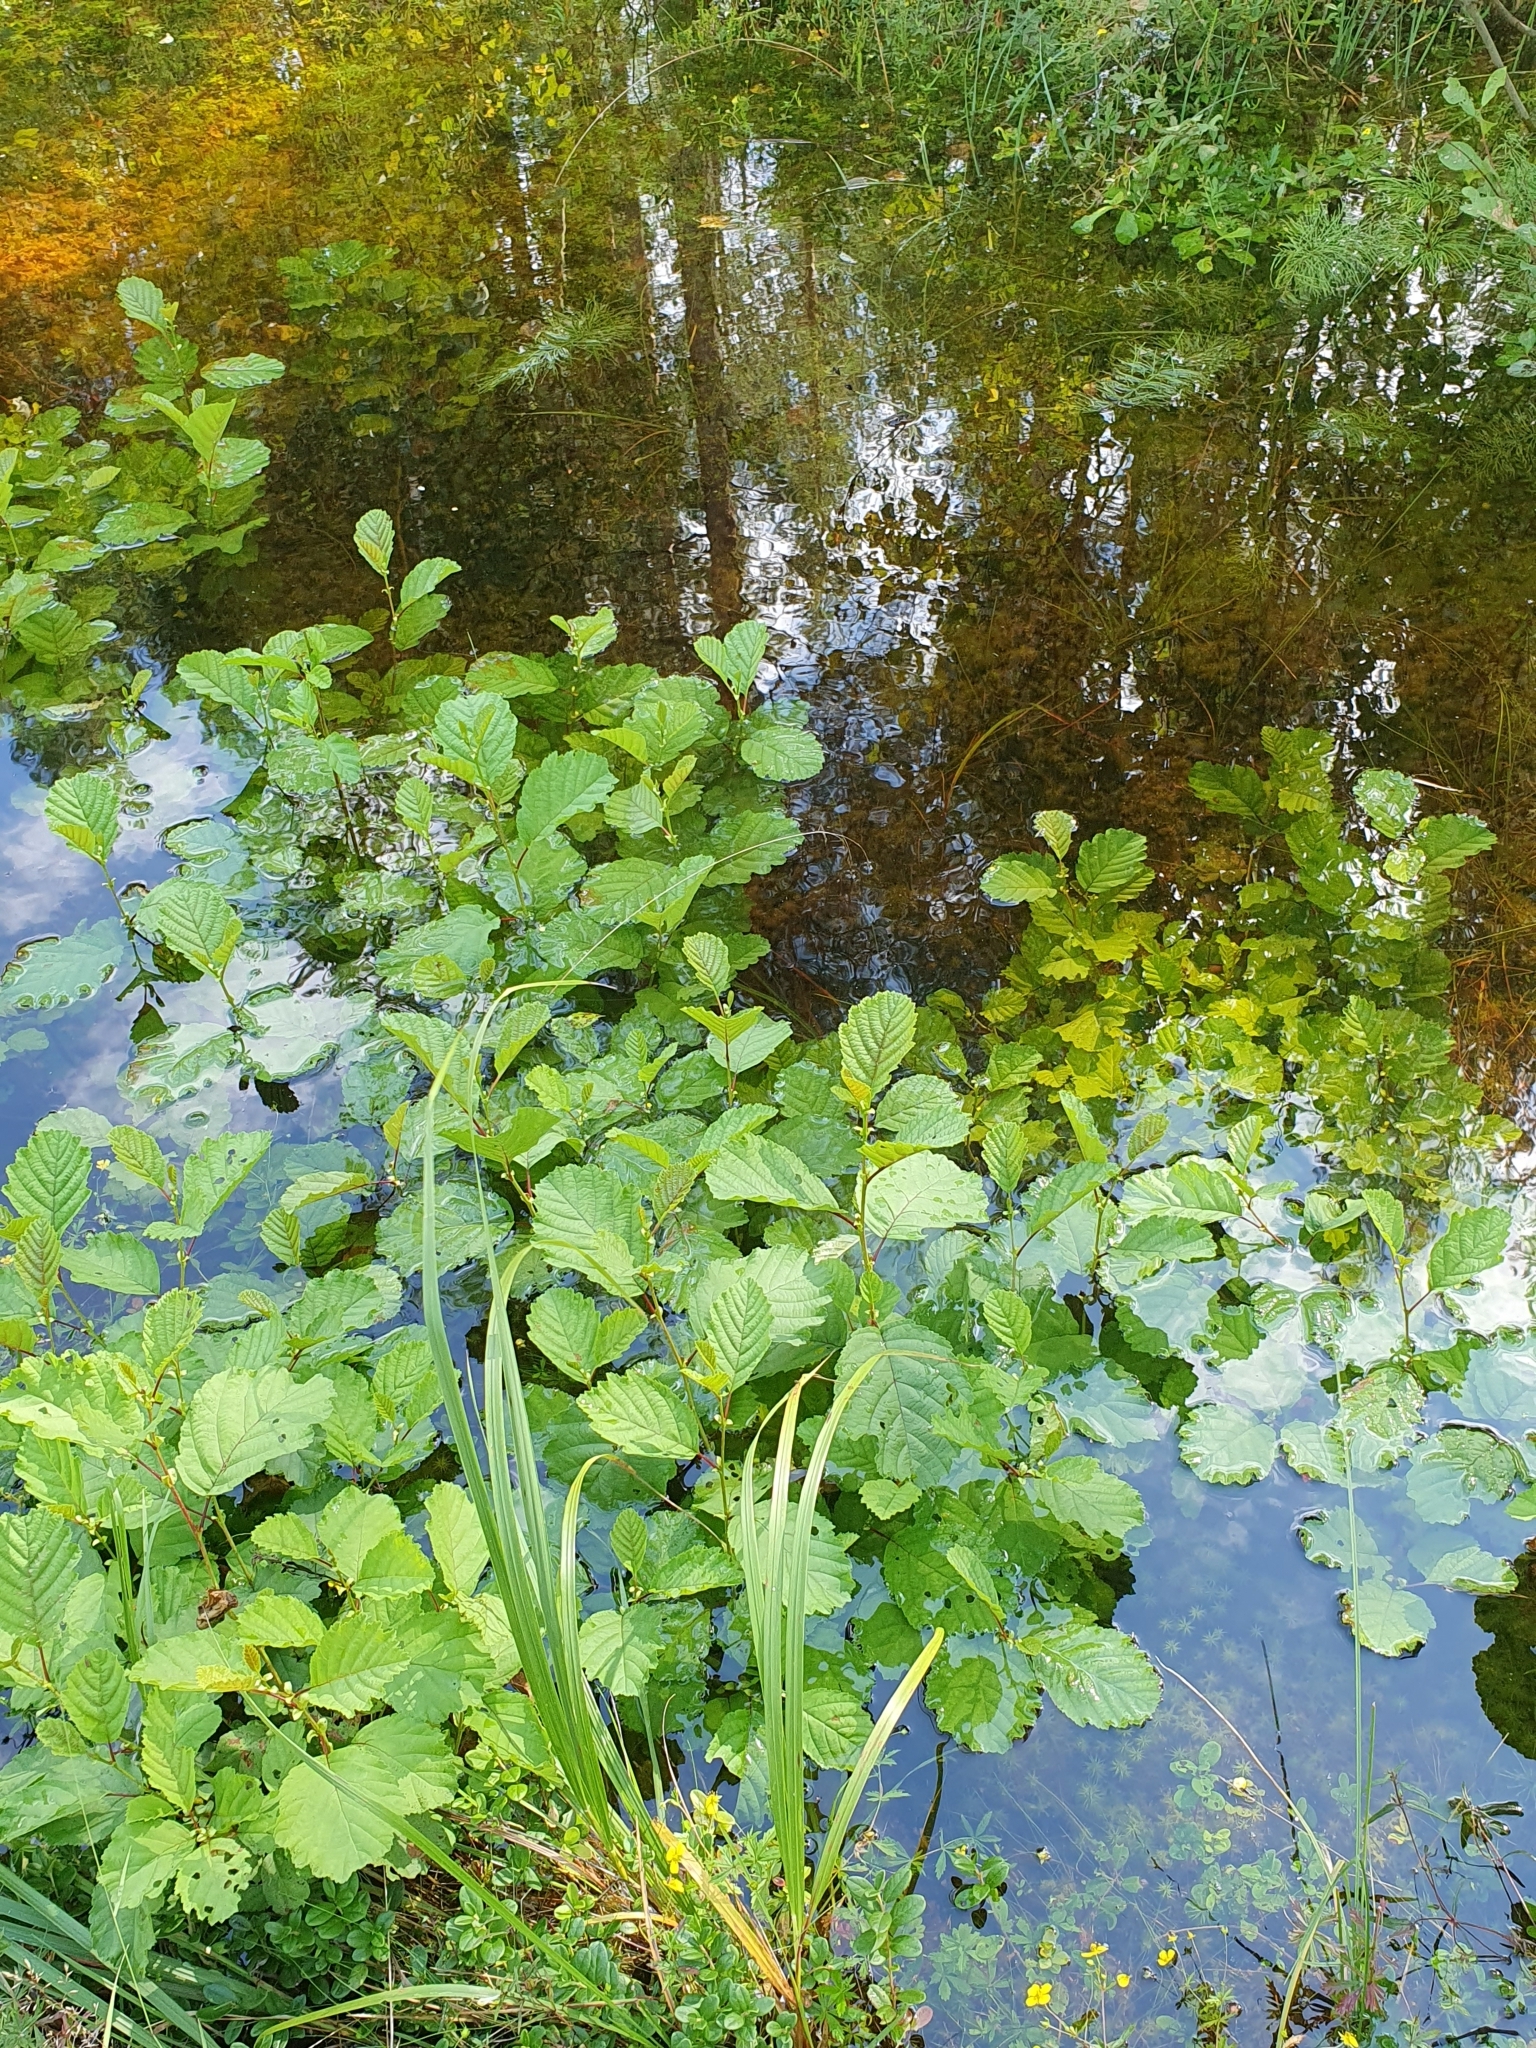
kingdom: Plantae
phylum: Tracheophyta
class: Magnoliopsida
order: Fagales
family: Betulaceae
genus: Alnus
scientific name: Alnus glutinosa
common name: Black alder
